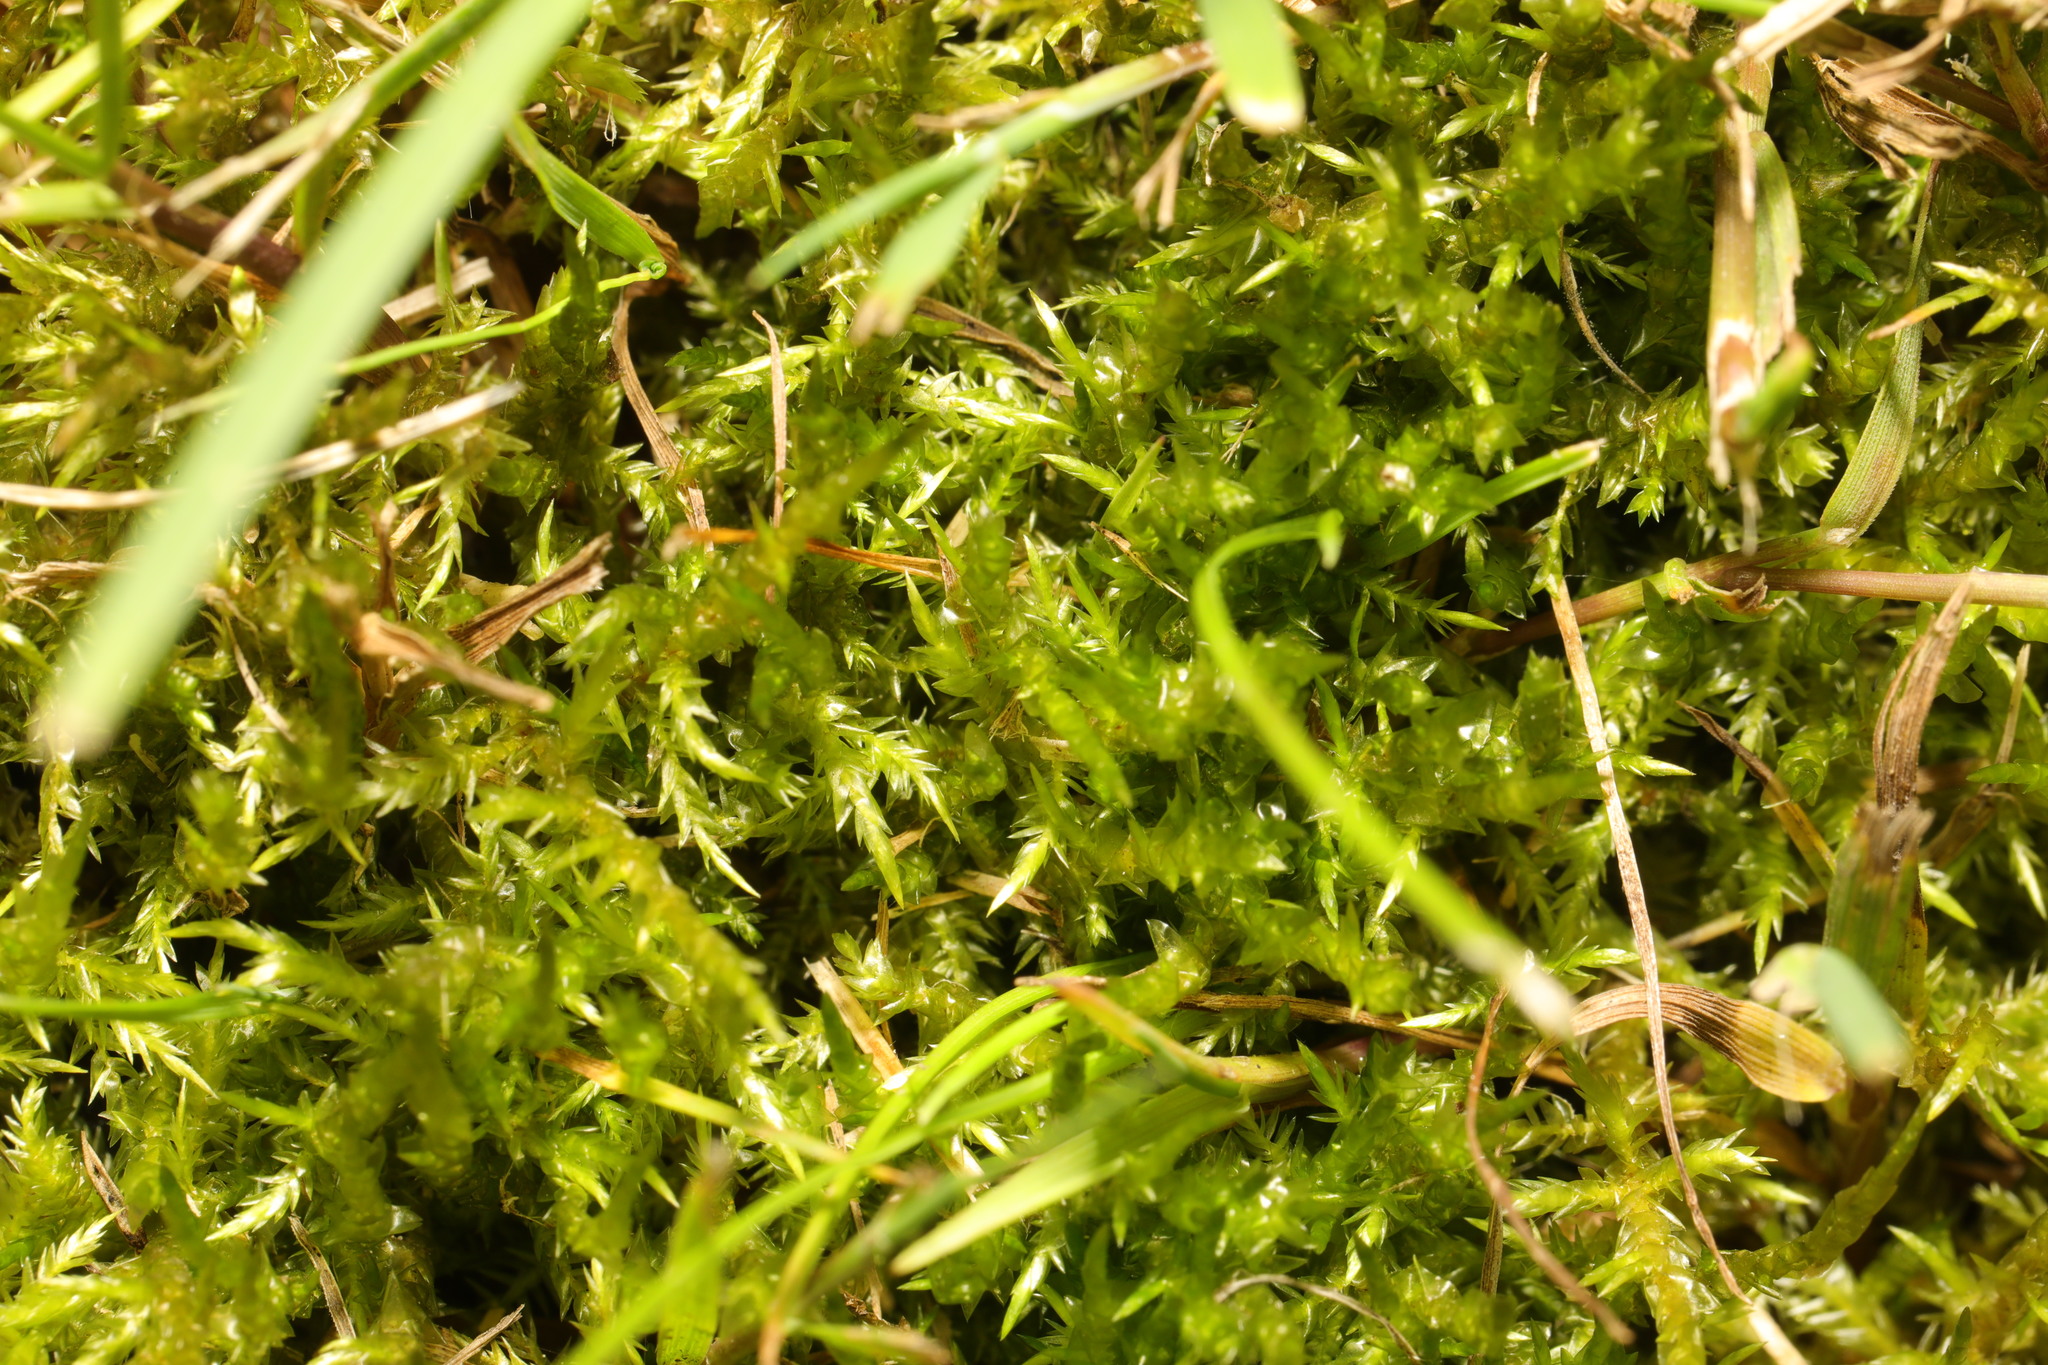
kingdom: Plantae
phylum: Bryophyta
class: Bryopsida
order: Hypnales
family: Pylaisiaceae
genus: Calliergonella
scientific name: Calliergonella cuspidata
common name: Common large wetland moss
